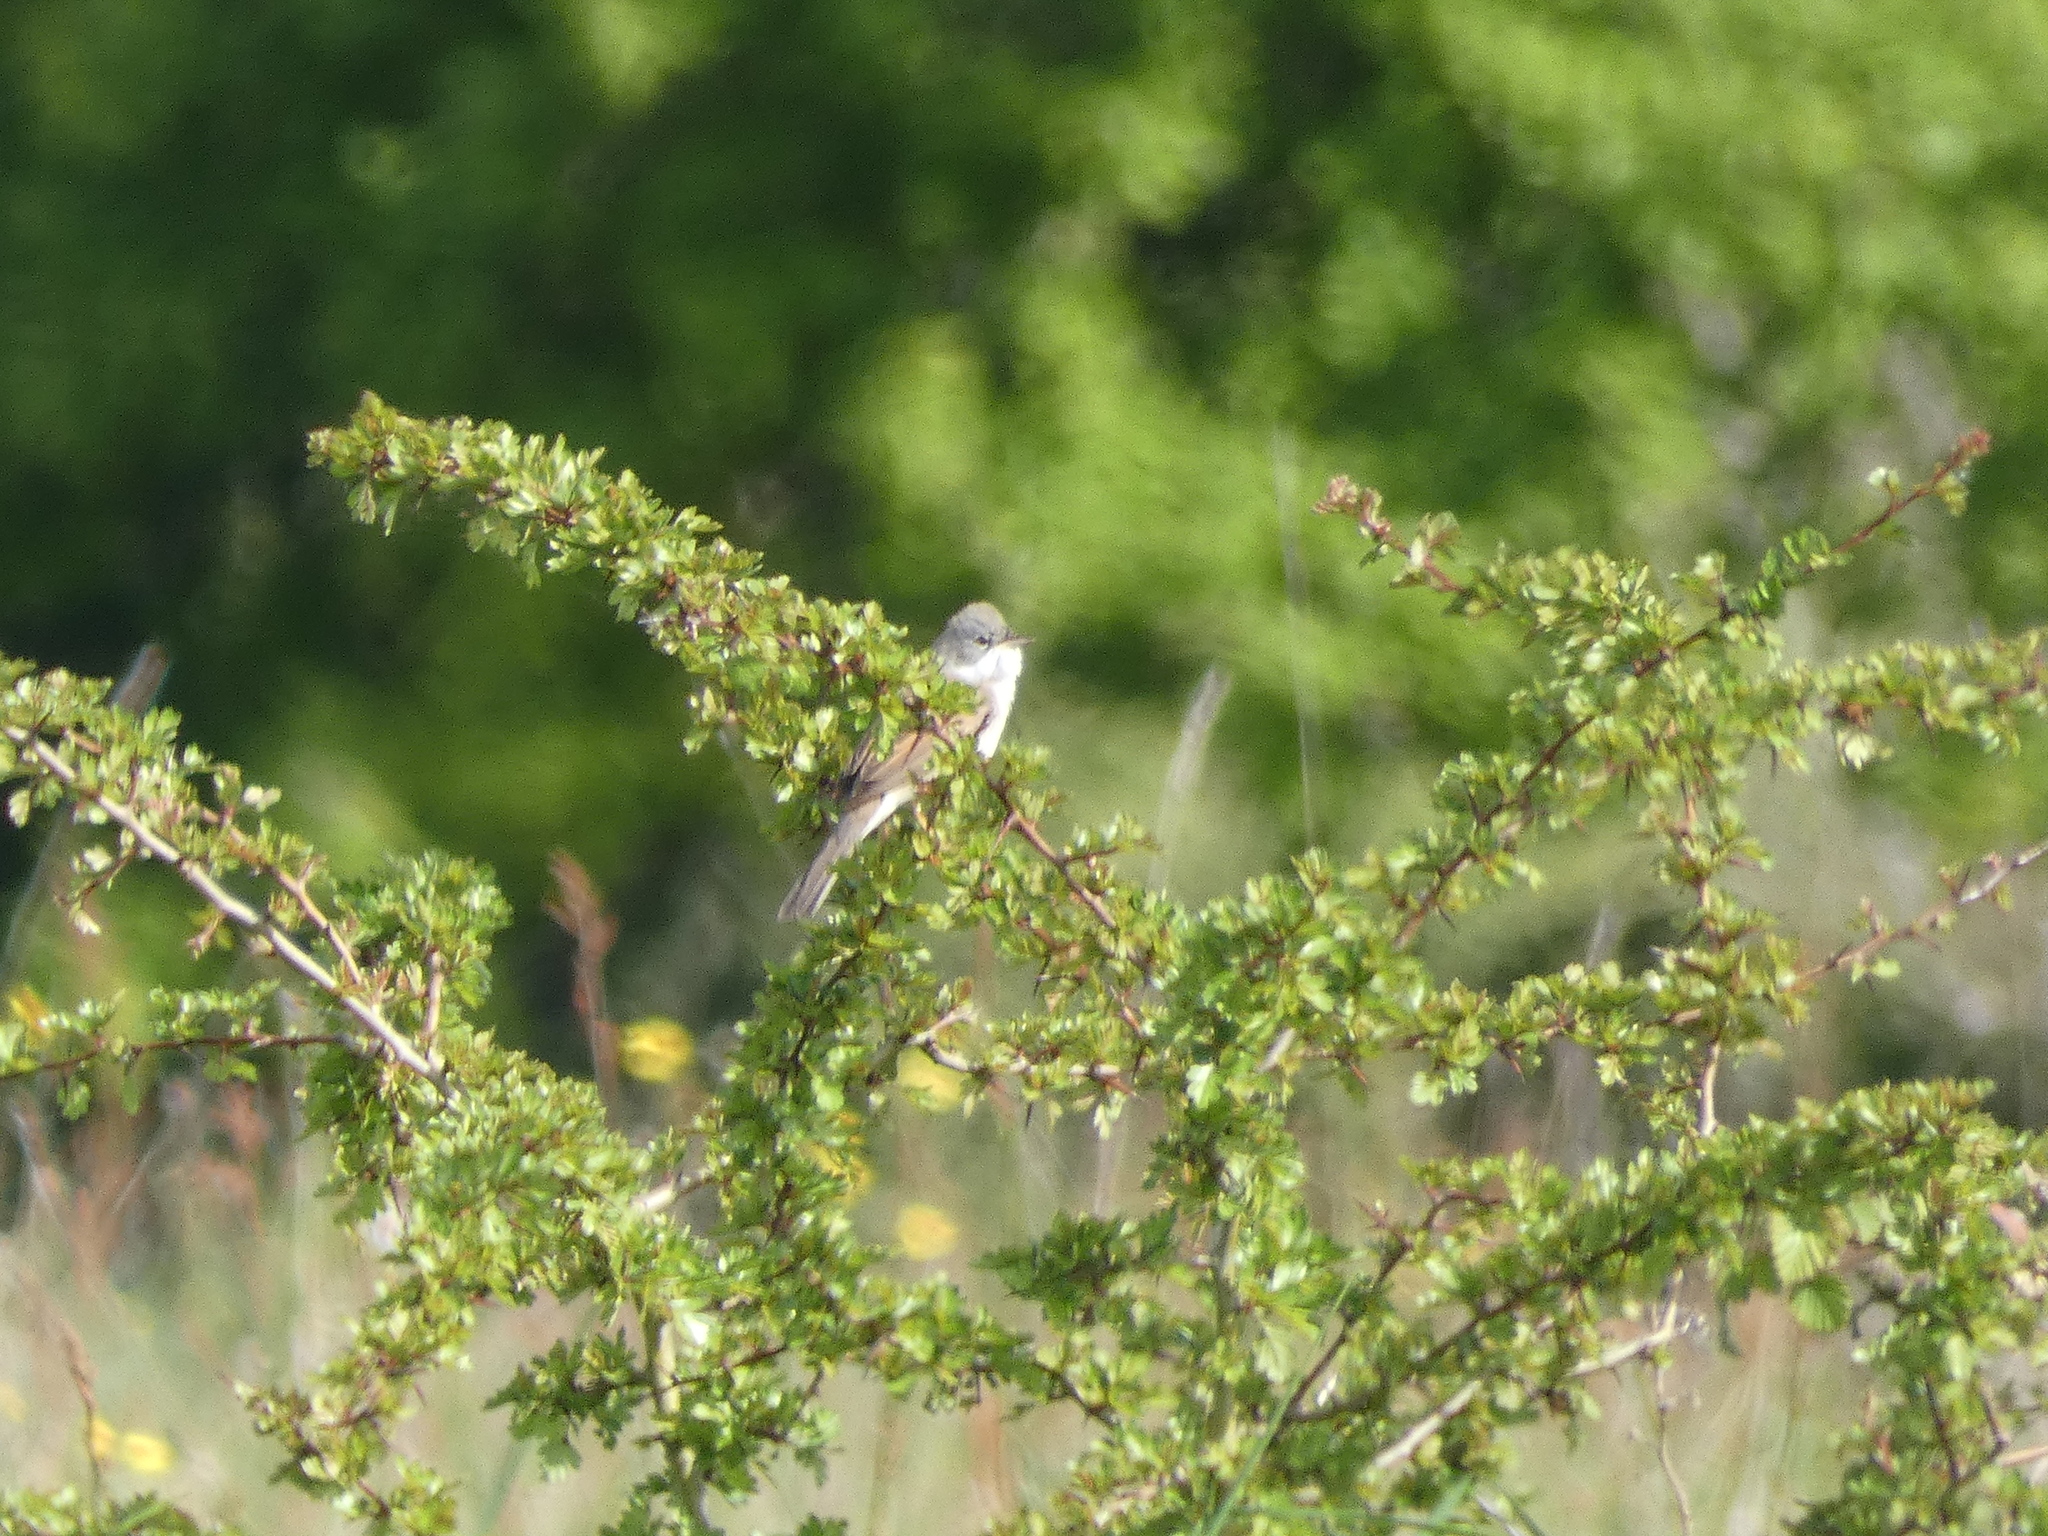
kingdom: Animalia
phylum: Chordata
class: Aves
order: Passeriformes
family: Sylviidae
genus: Sylvia
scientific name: Sylvia communis
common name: Common whitethroat
